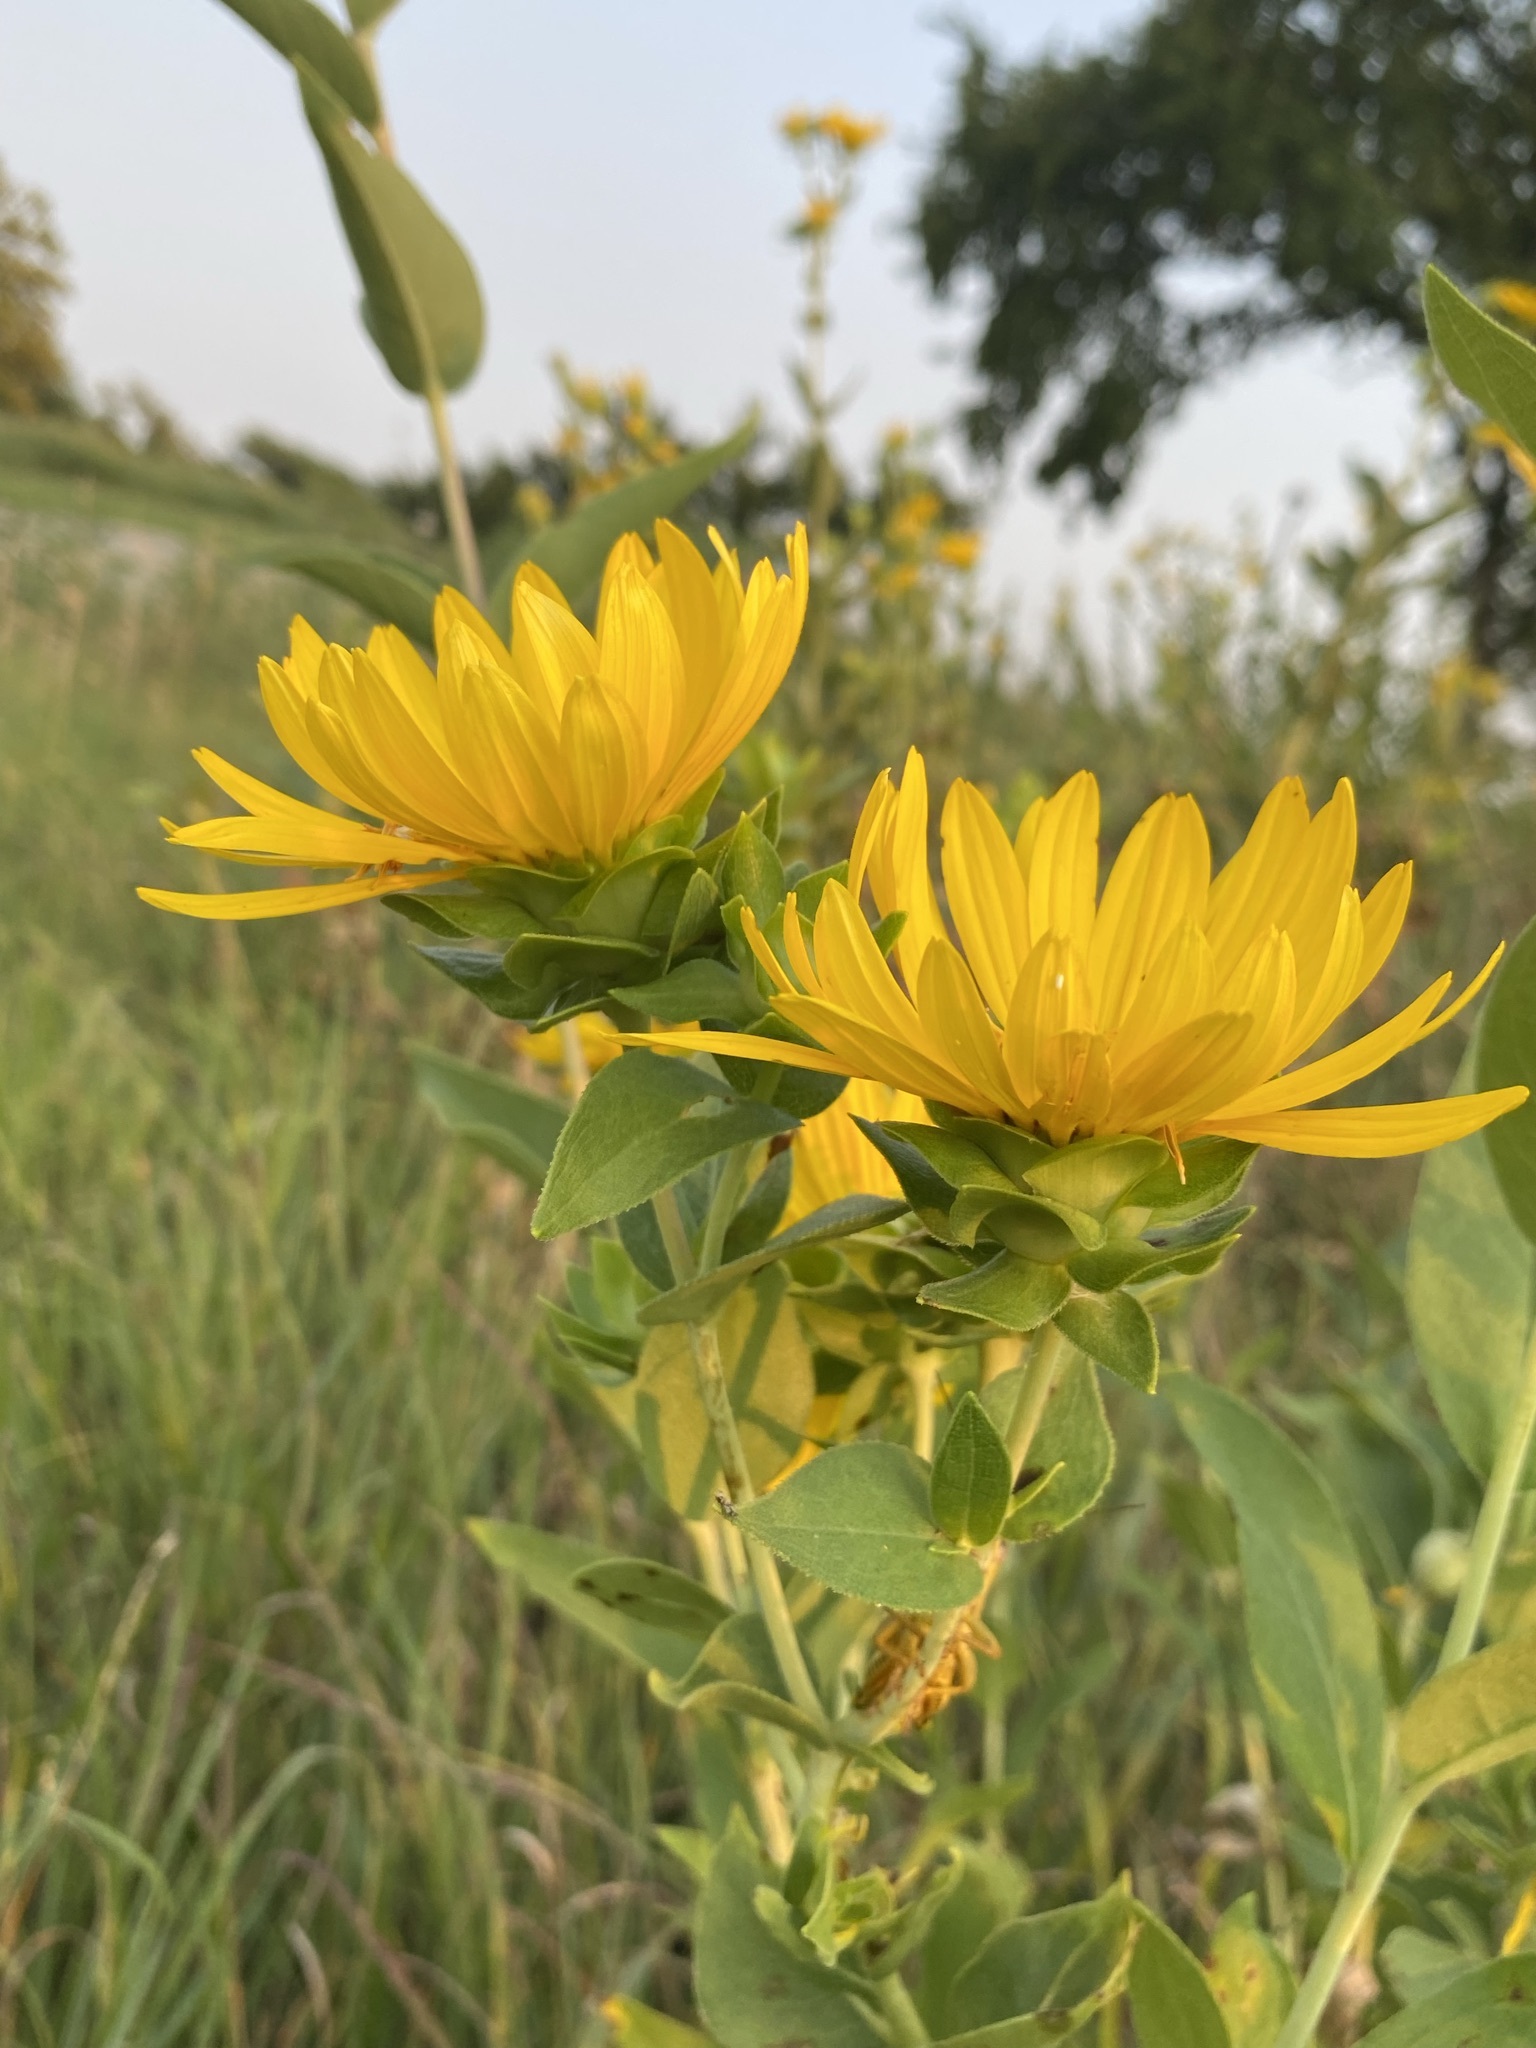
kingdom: Plantae
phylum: Tracheophyta
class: Magnoliopsida
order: Asterales
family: Asteraceae
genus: Silphium
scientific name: Silphium integrifolium
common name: Whole-leaf rosinweed
